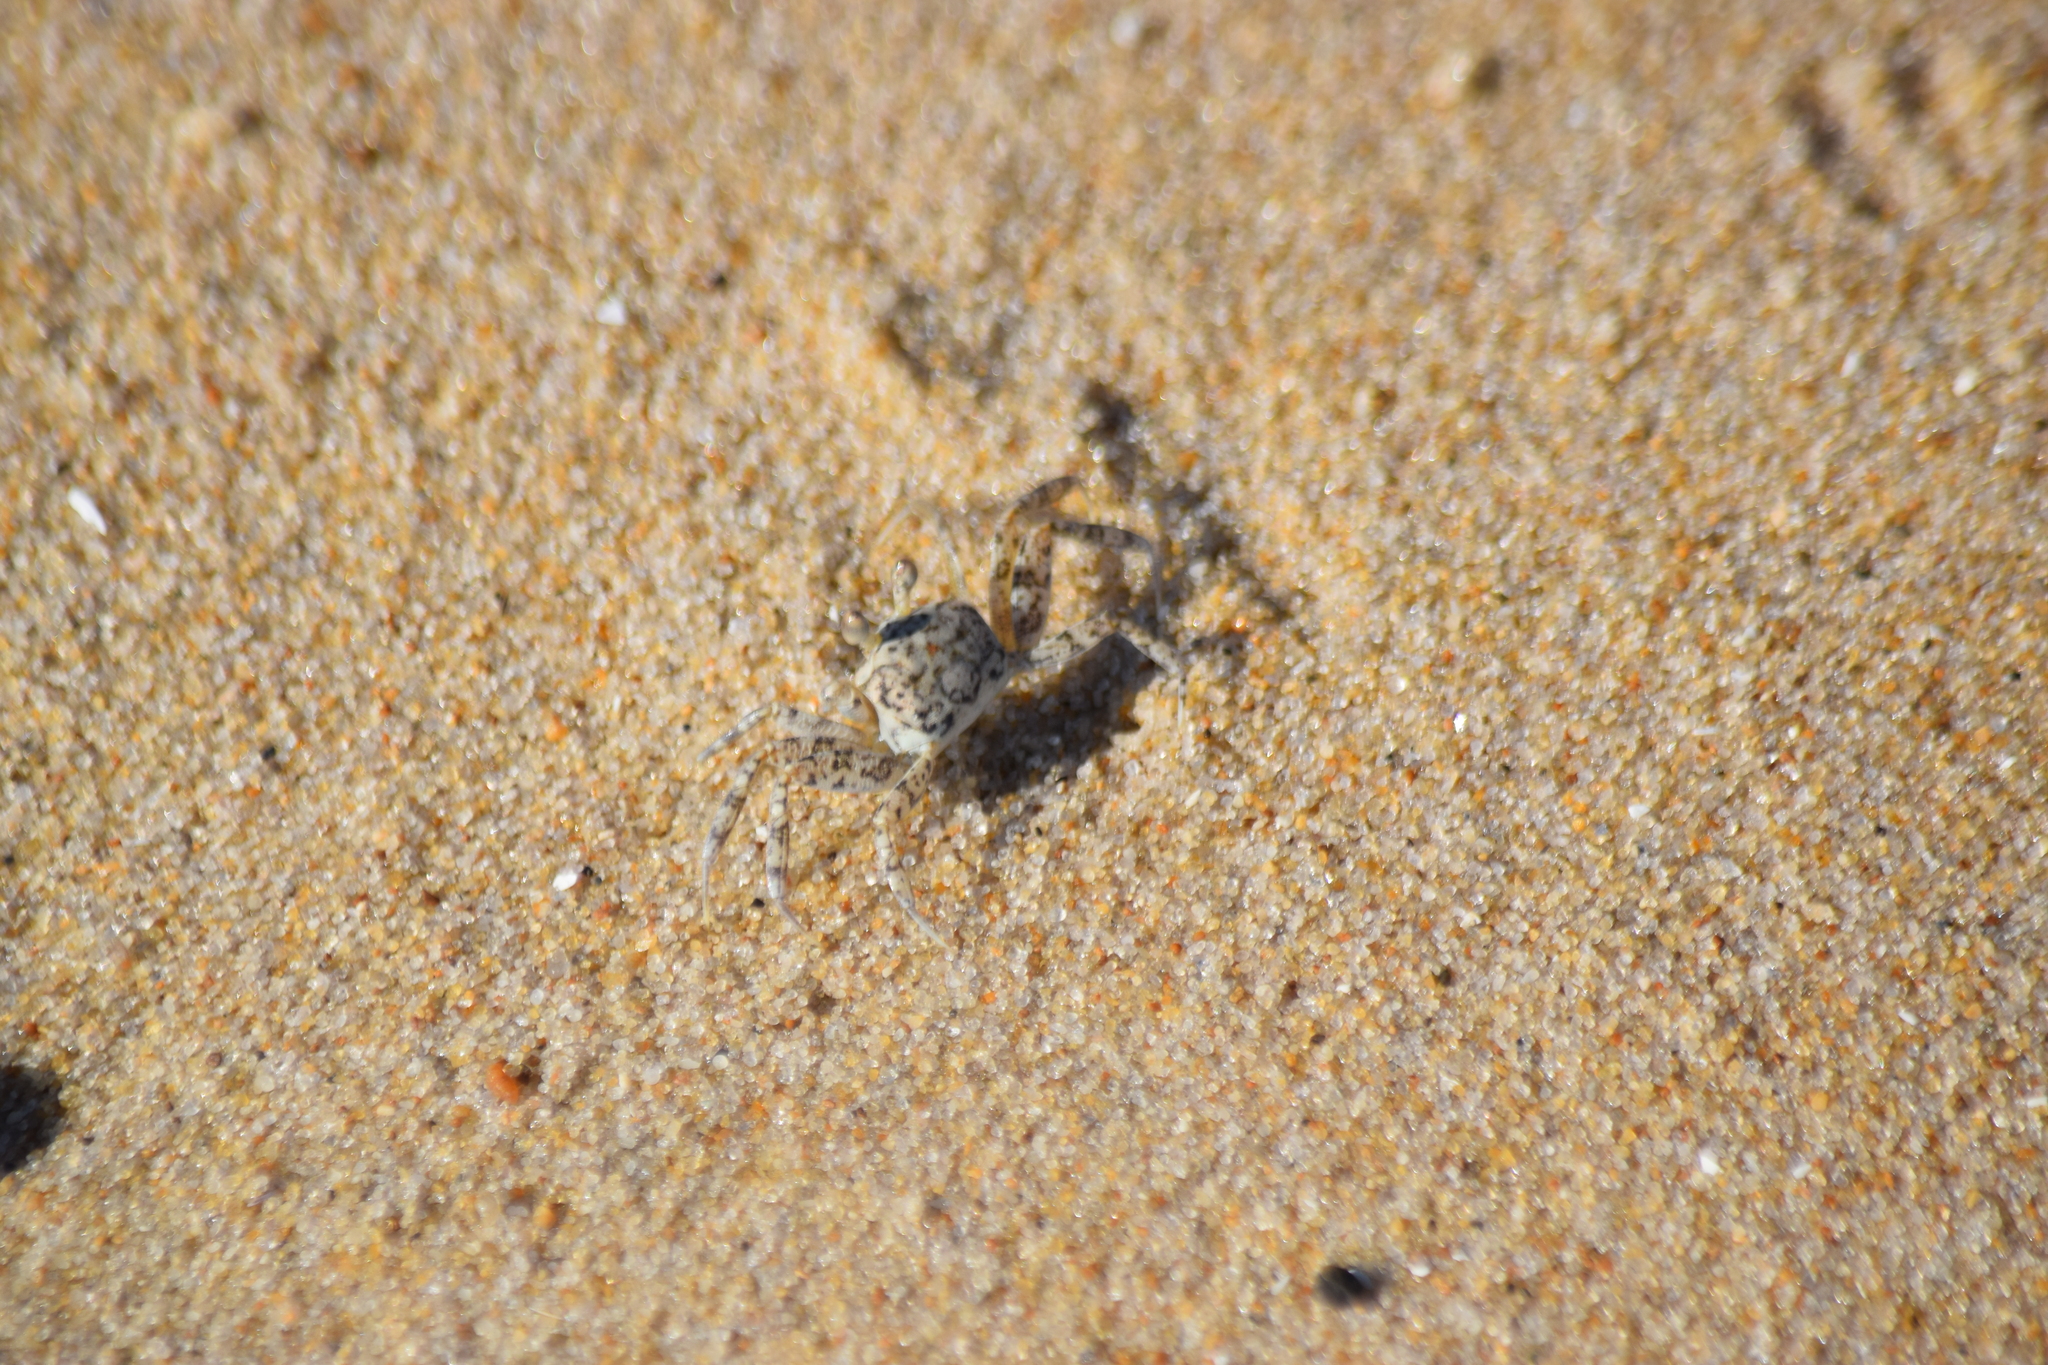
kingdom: Animalia
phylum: Arthropoda
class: Malacostraca
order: Decapoda
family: Ocypodidae
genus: Ocypode
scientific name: Ocypode quadrata
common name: Ghost crab
